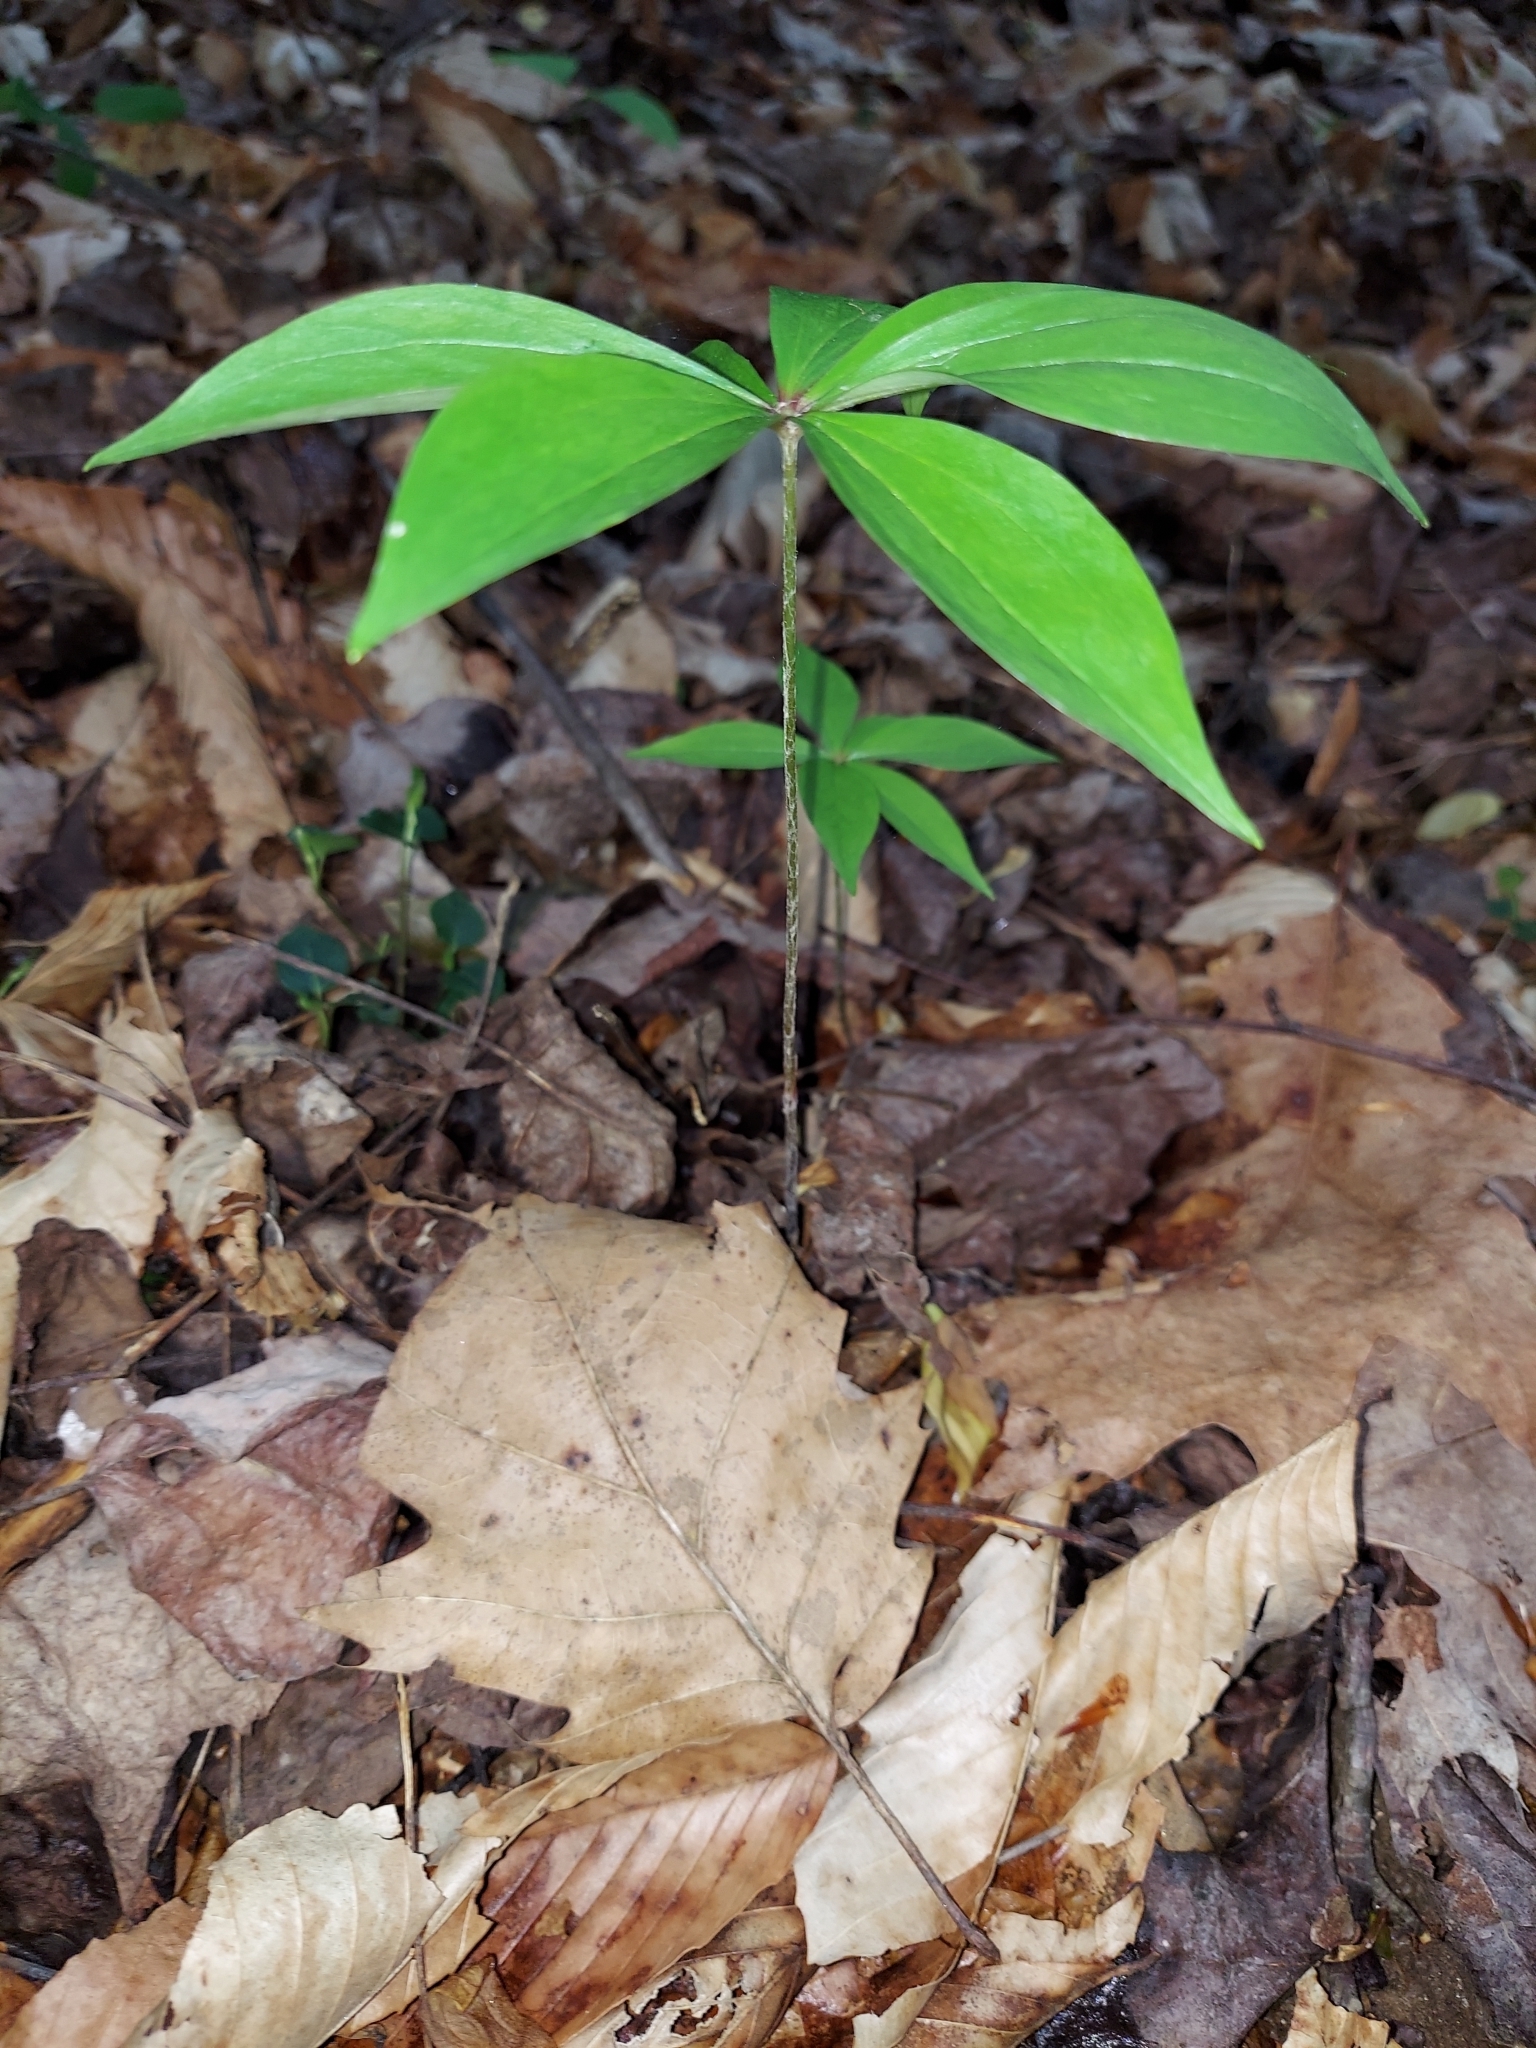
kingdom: Plantae
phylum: Tracheophyta
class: Liliopsida
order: Liliales
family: Liliaceae
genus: Medeola
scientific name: Medeola virginiana
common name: Indian cucumber-root
